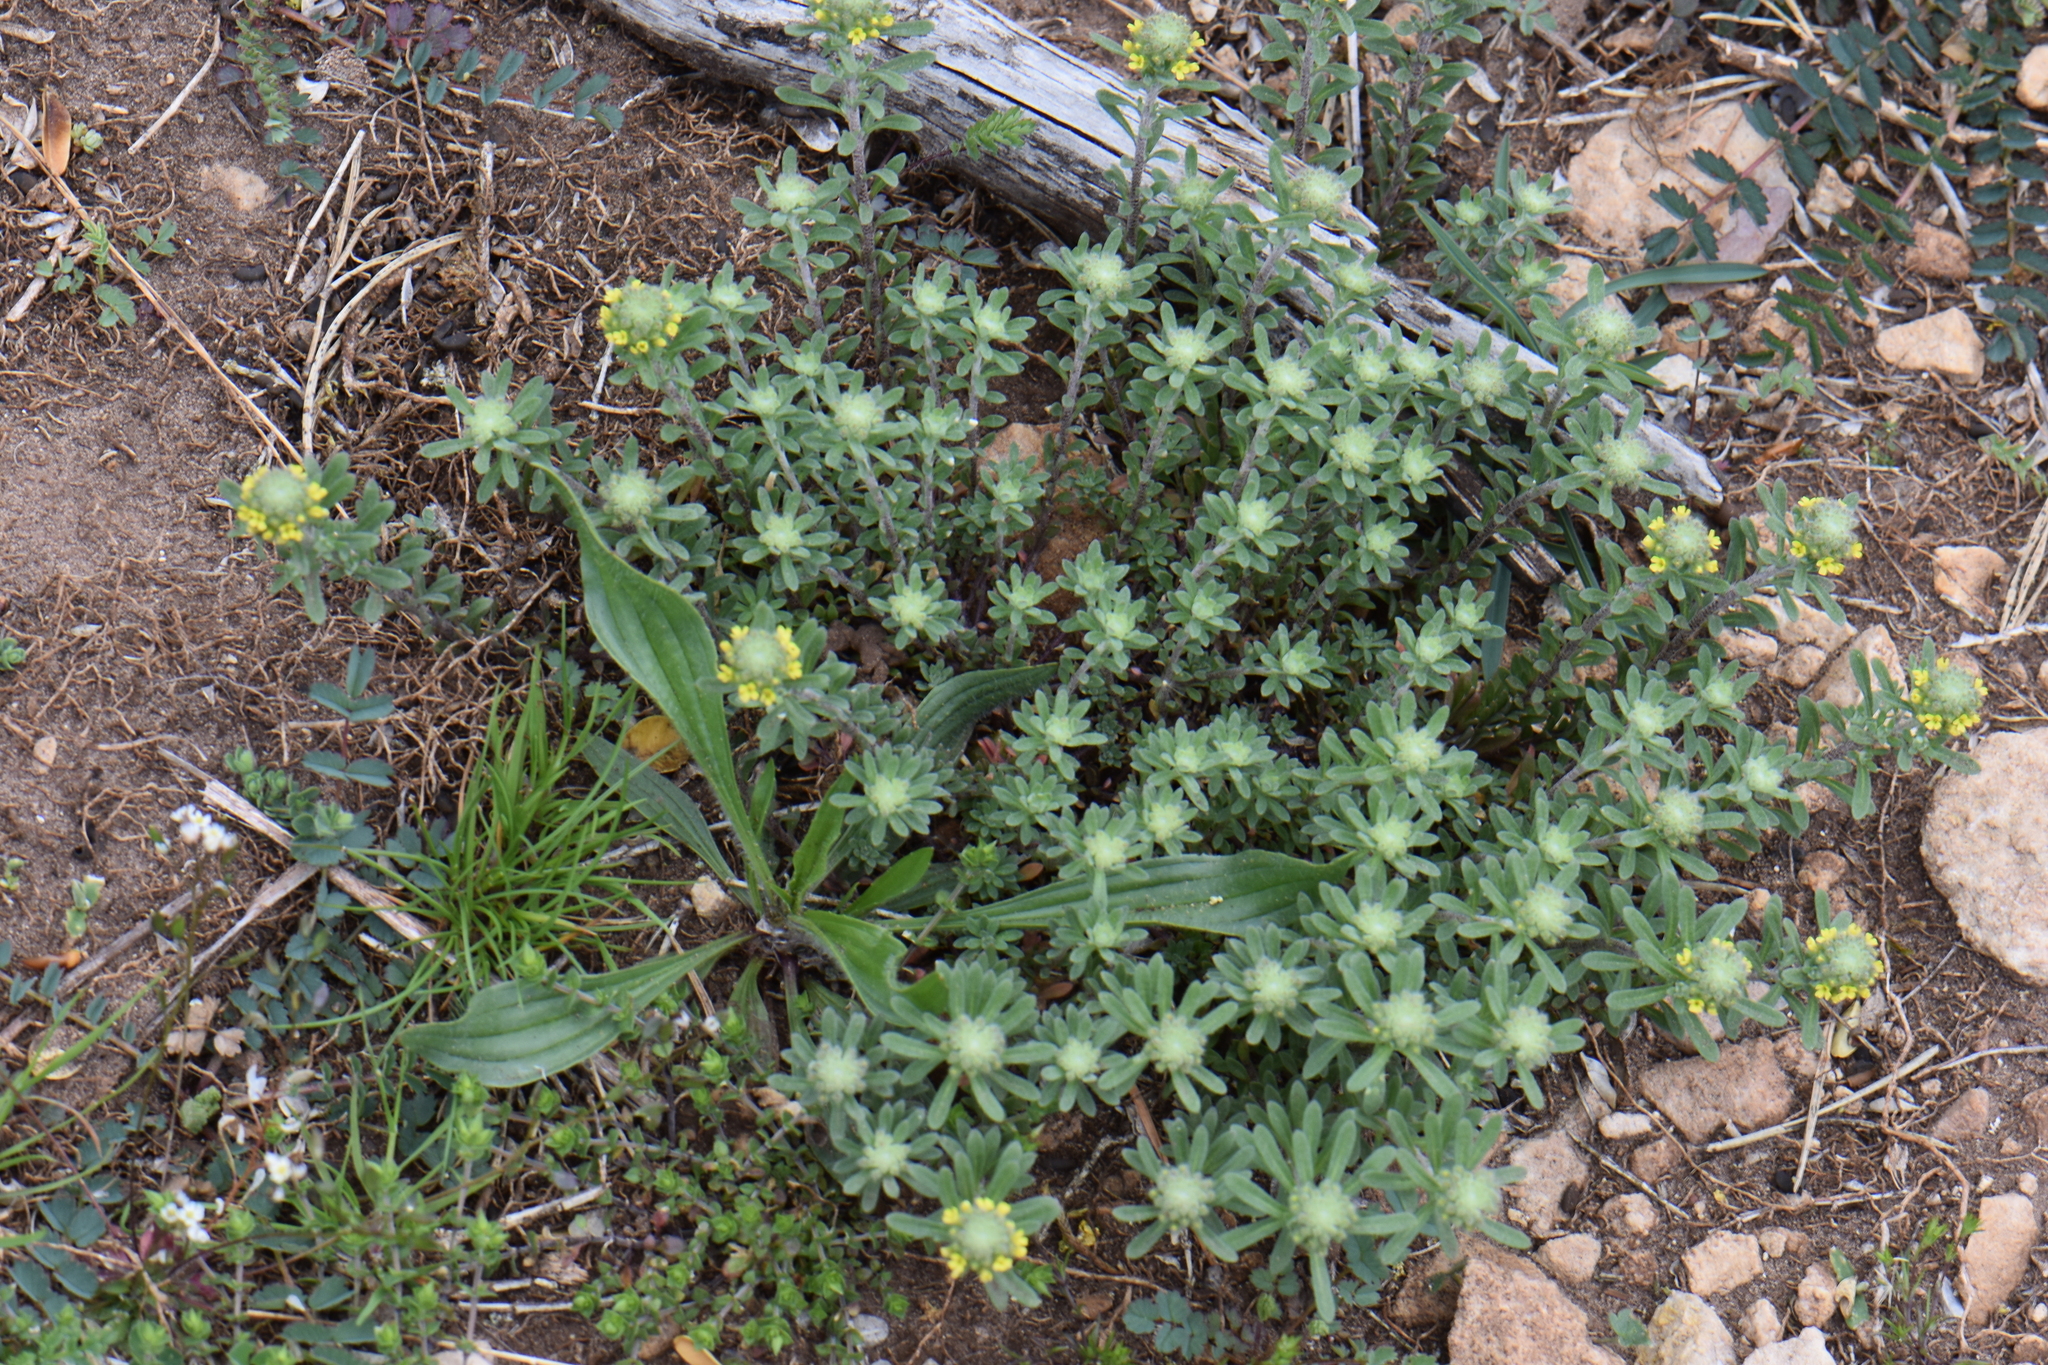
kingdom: Plantae
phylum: Tracheophyta
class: Magnoliopsida
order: Brassicales
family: Brassicaceae
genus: Alyssum
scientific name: Alyssum alyssoides
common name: Small alison
